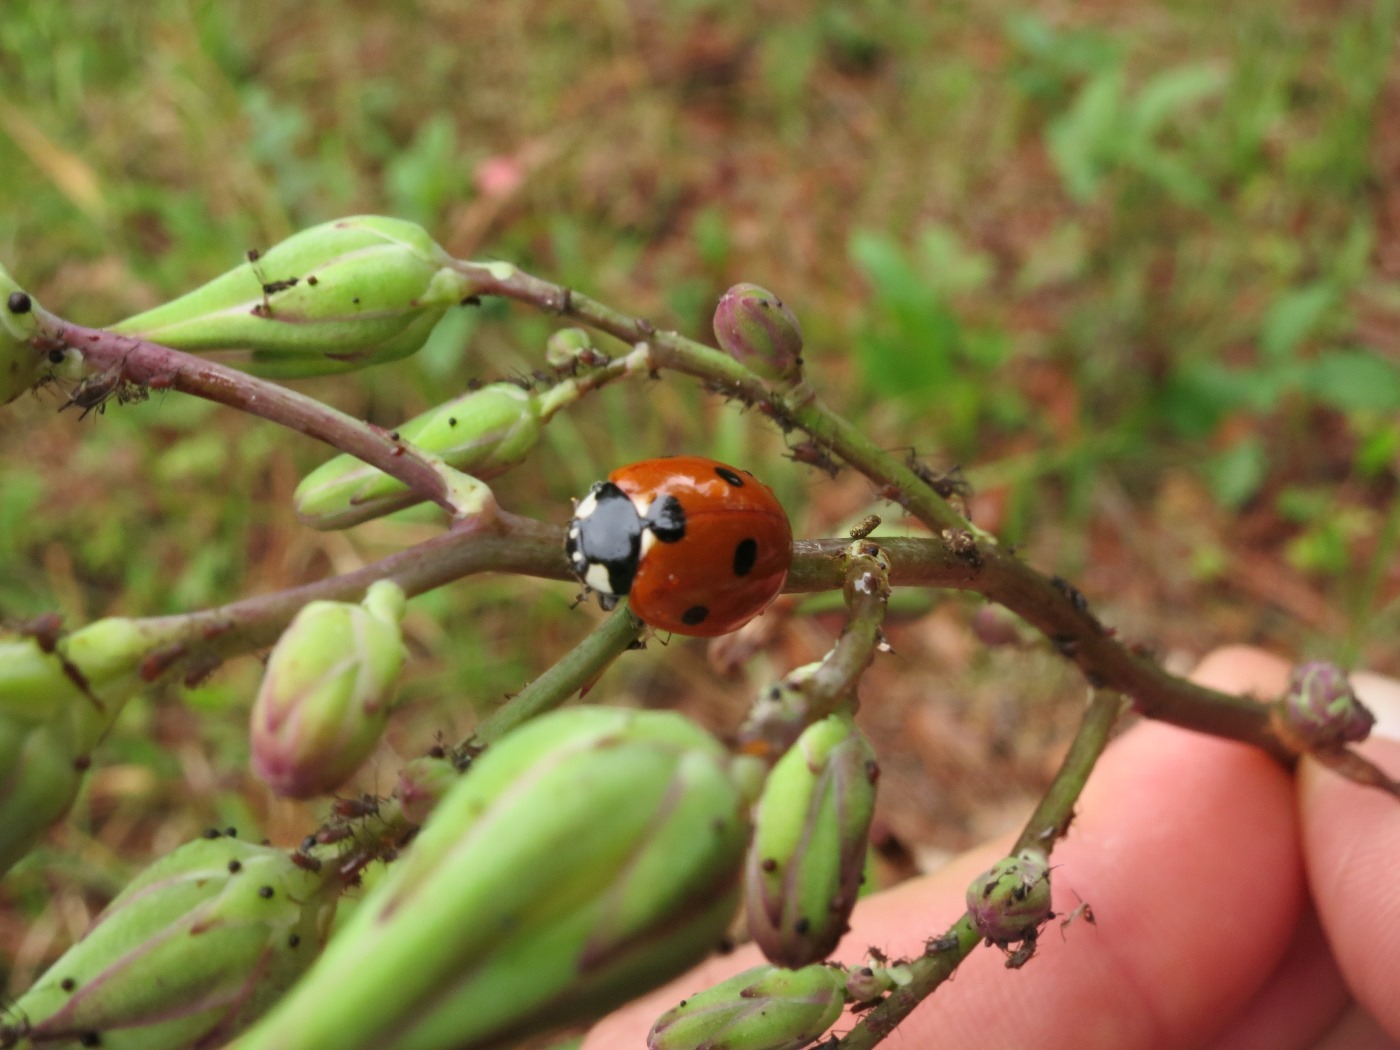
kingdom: Animalia
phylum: Arthropoda
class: Insecta
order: Coleoptera
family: Coccinellidae
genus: Coccinella
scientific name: Coccinella septempunctata
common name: Sevenspotted lady beetle
